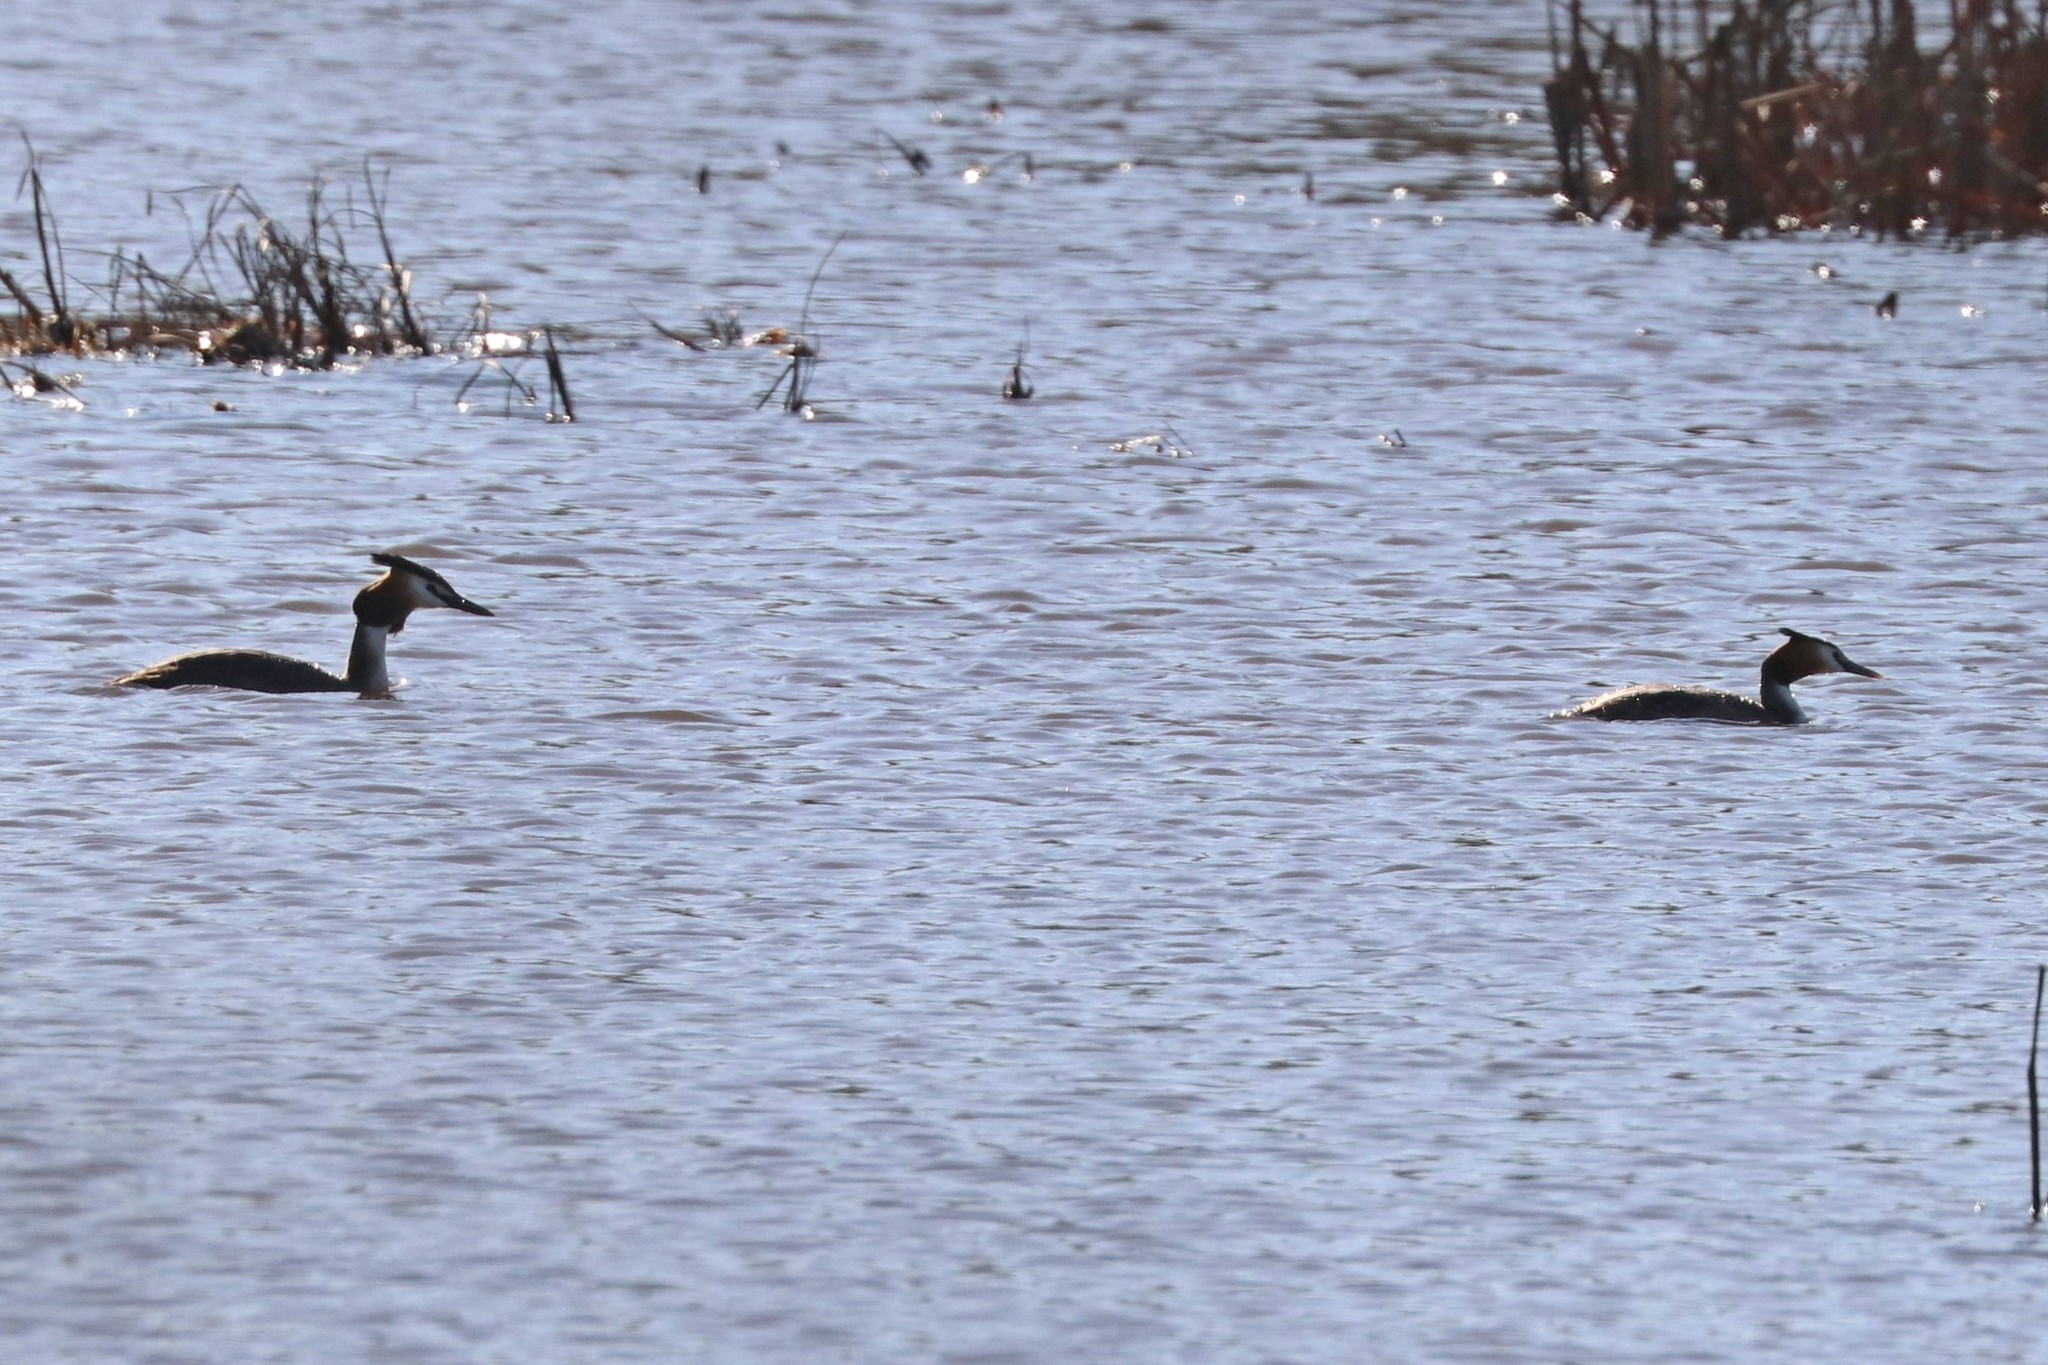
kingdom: Animalia
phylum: Chordata
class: Aves
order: Podicipediformes
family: Podicipedidae
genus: Podiceps
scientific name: Podiceps cristatus
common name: Great crested grebe
